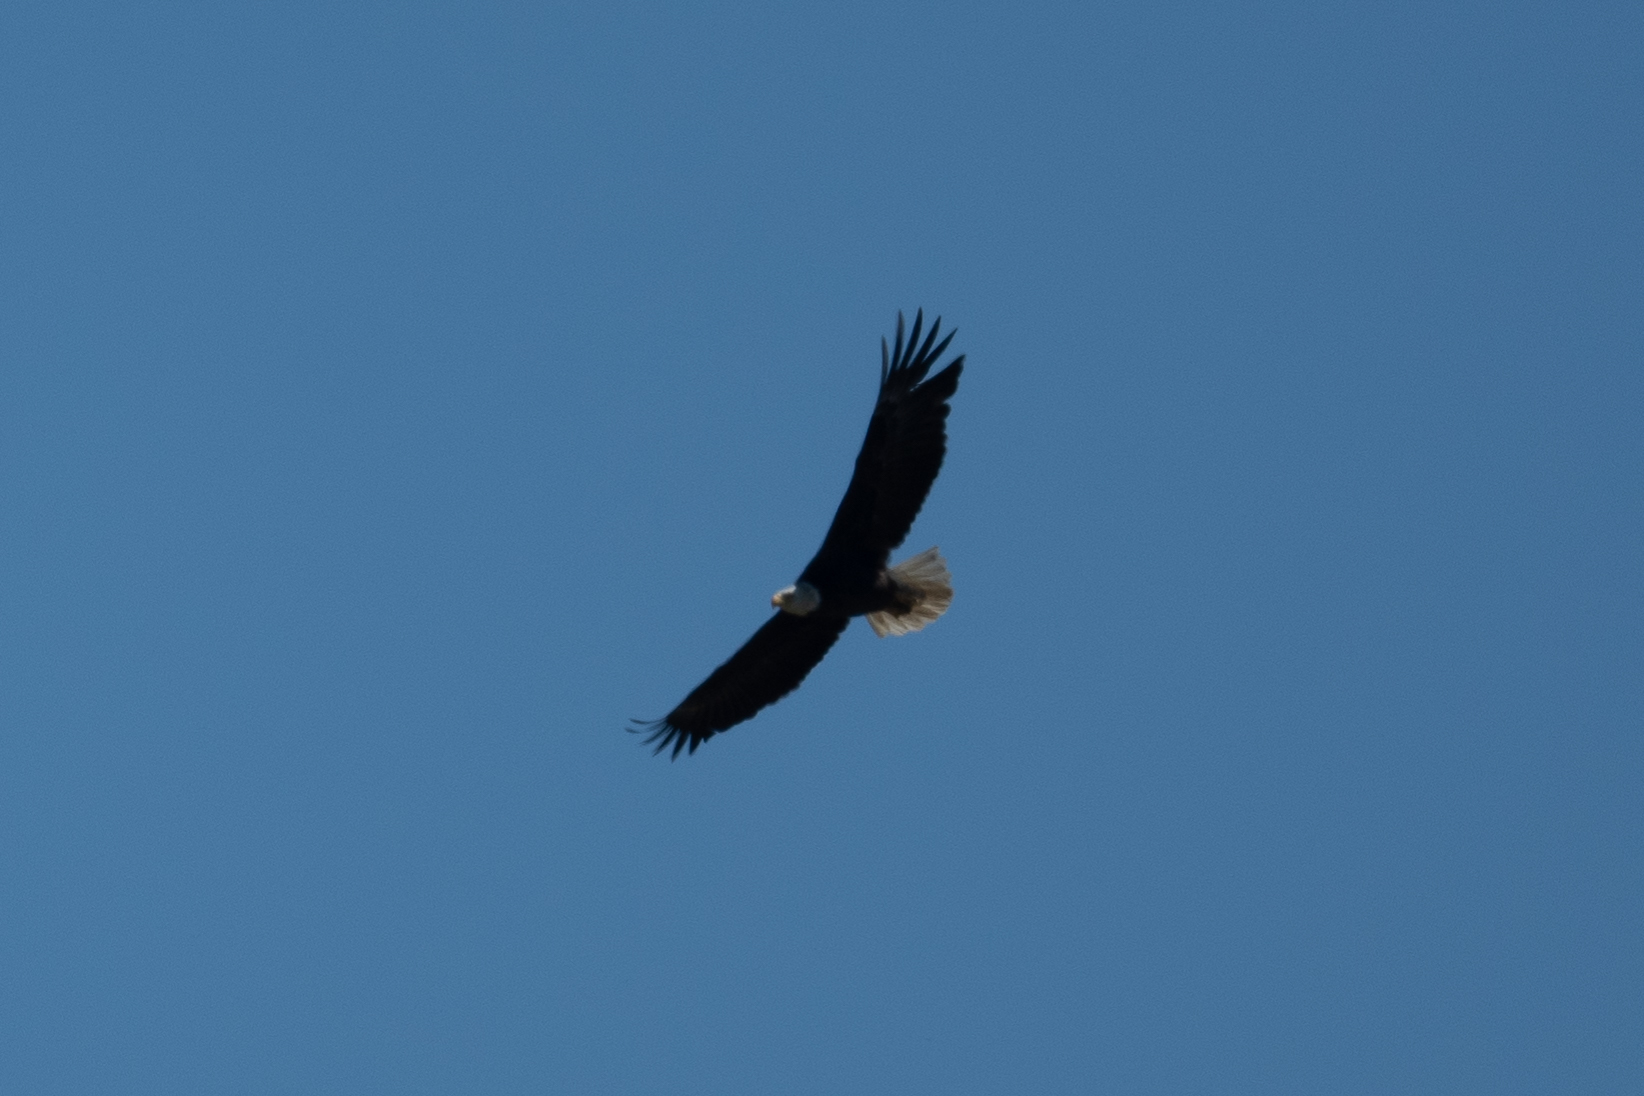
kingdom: Animalia
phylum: Chordata
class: Aves
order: Accipitriformes
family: Accipitridae
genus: Haliaeetus
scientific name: Haliaeetus leucocephalus
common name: Bald eagle
